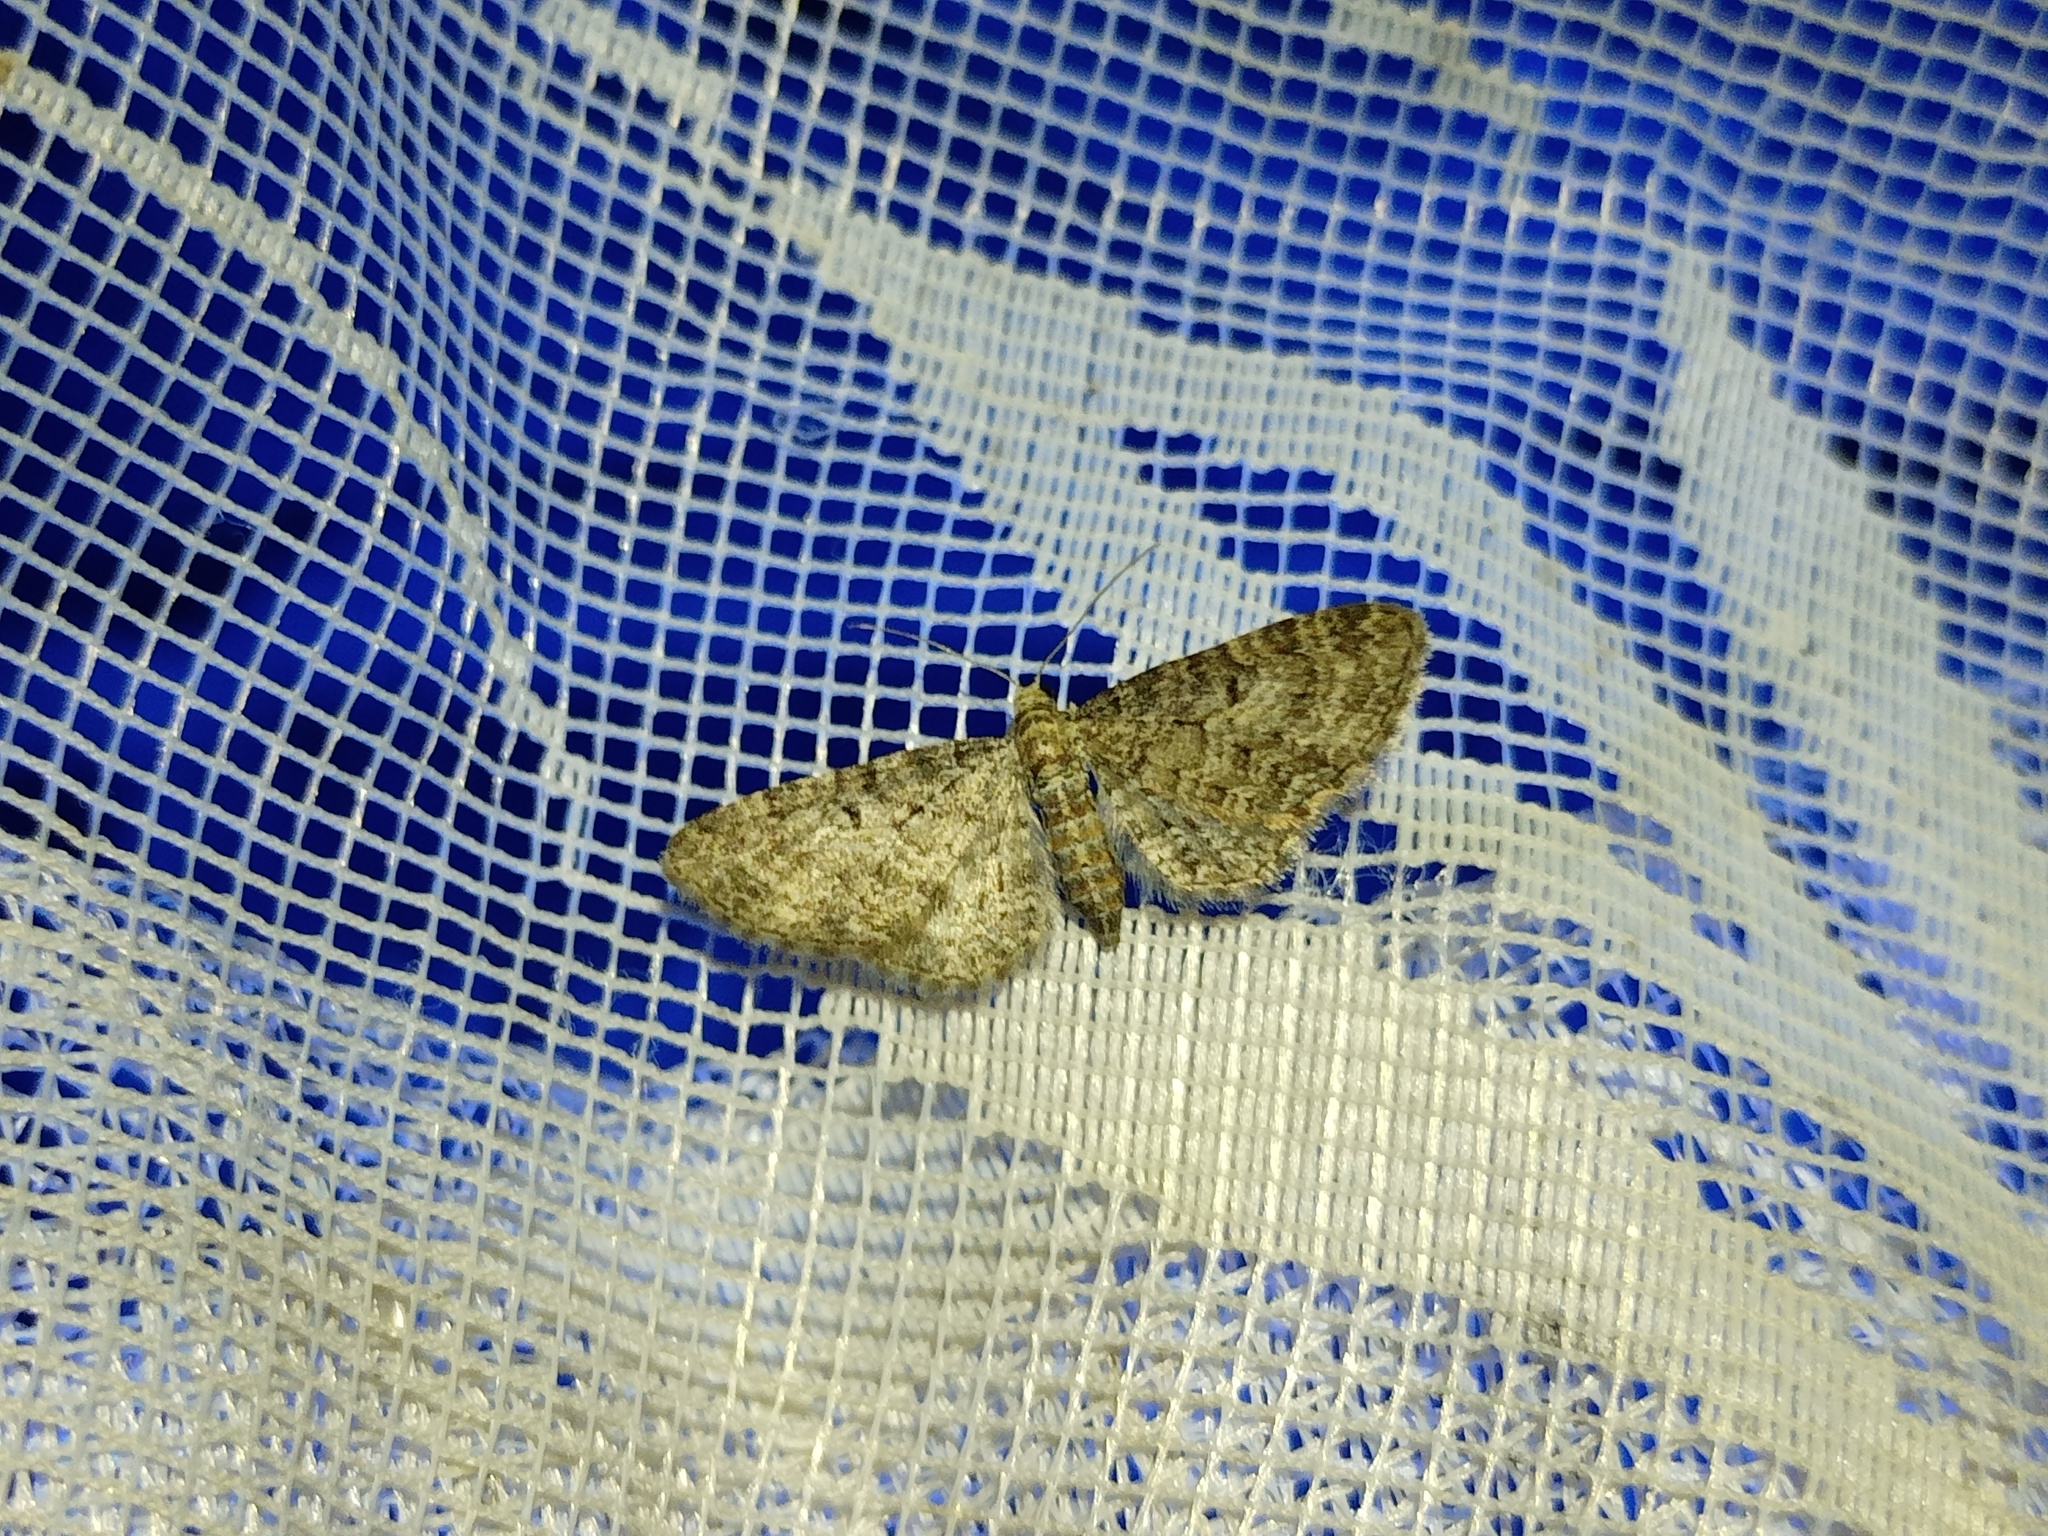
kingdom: Animalia
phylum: Arthropoda
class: Insecta
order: Lepidoptera
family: Geometridae
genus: Eupithecia
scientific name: Eupithecia subfuscata
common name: Grey pug
